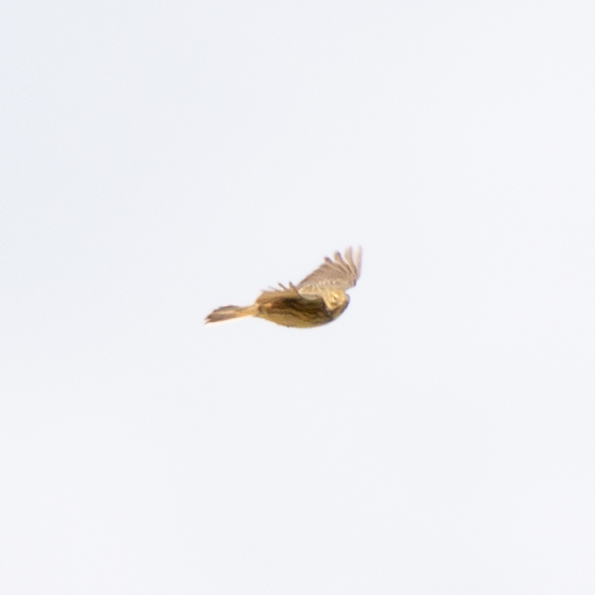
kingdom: Animalia
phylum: Chordata
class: Aves
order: Passeriformes
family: Motacillidae
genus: Anthus
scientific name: Anthus pratensis
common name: Meadow pipit
